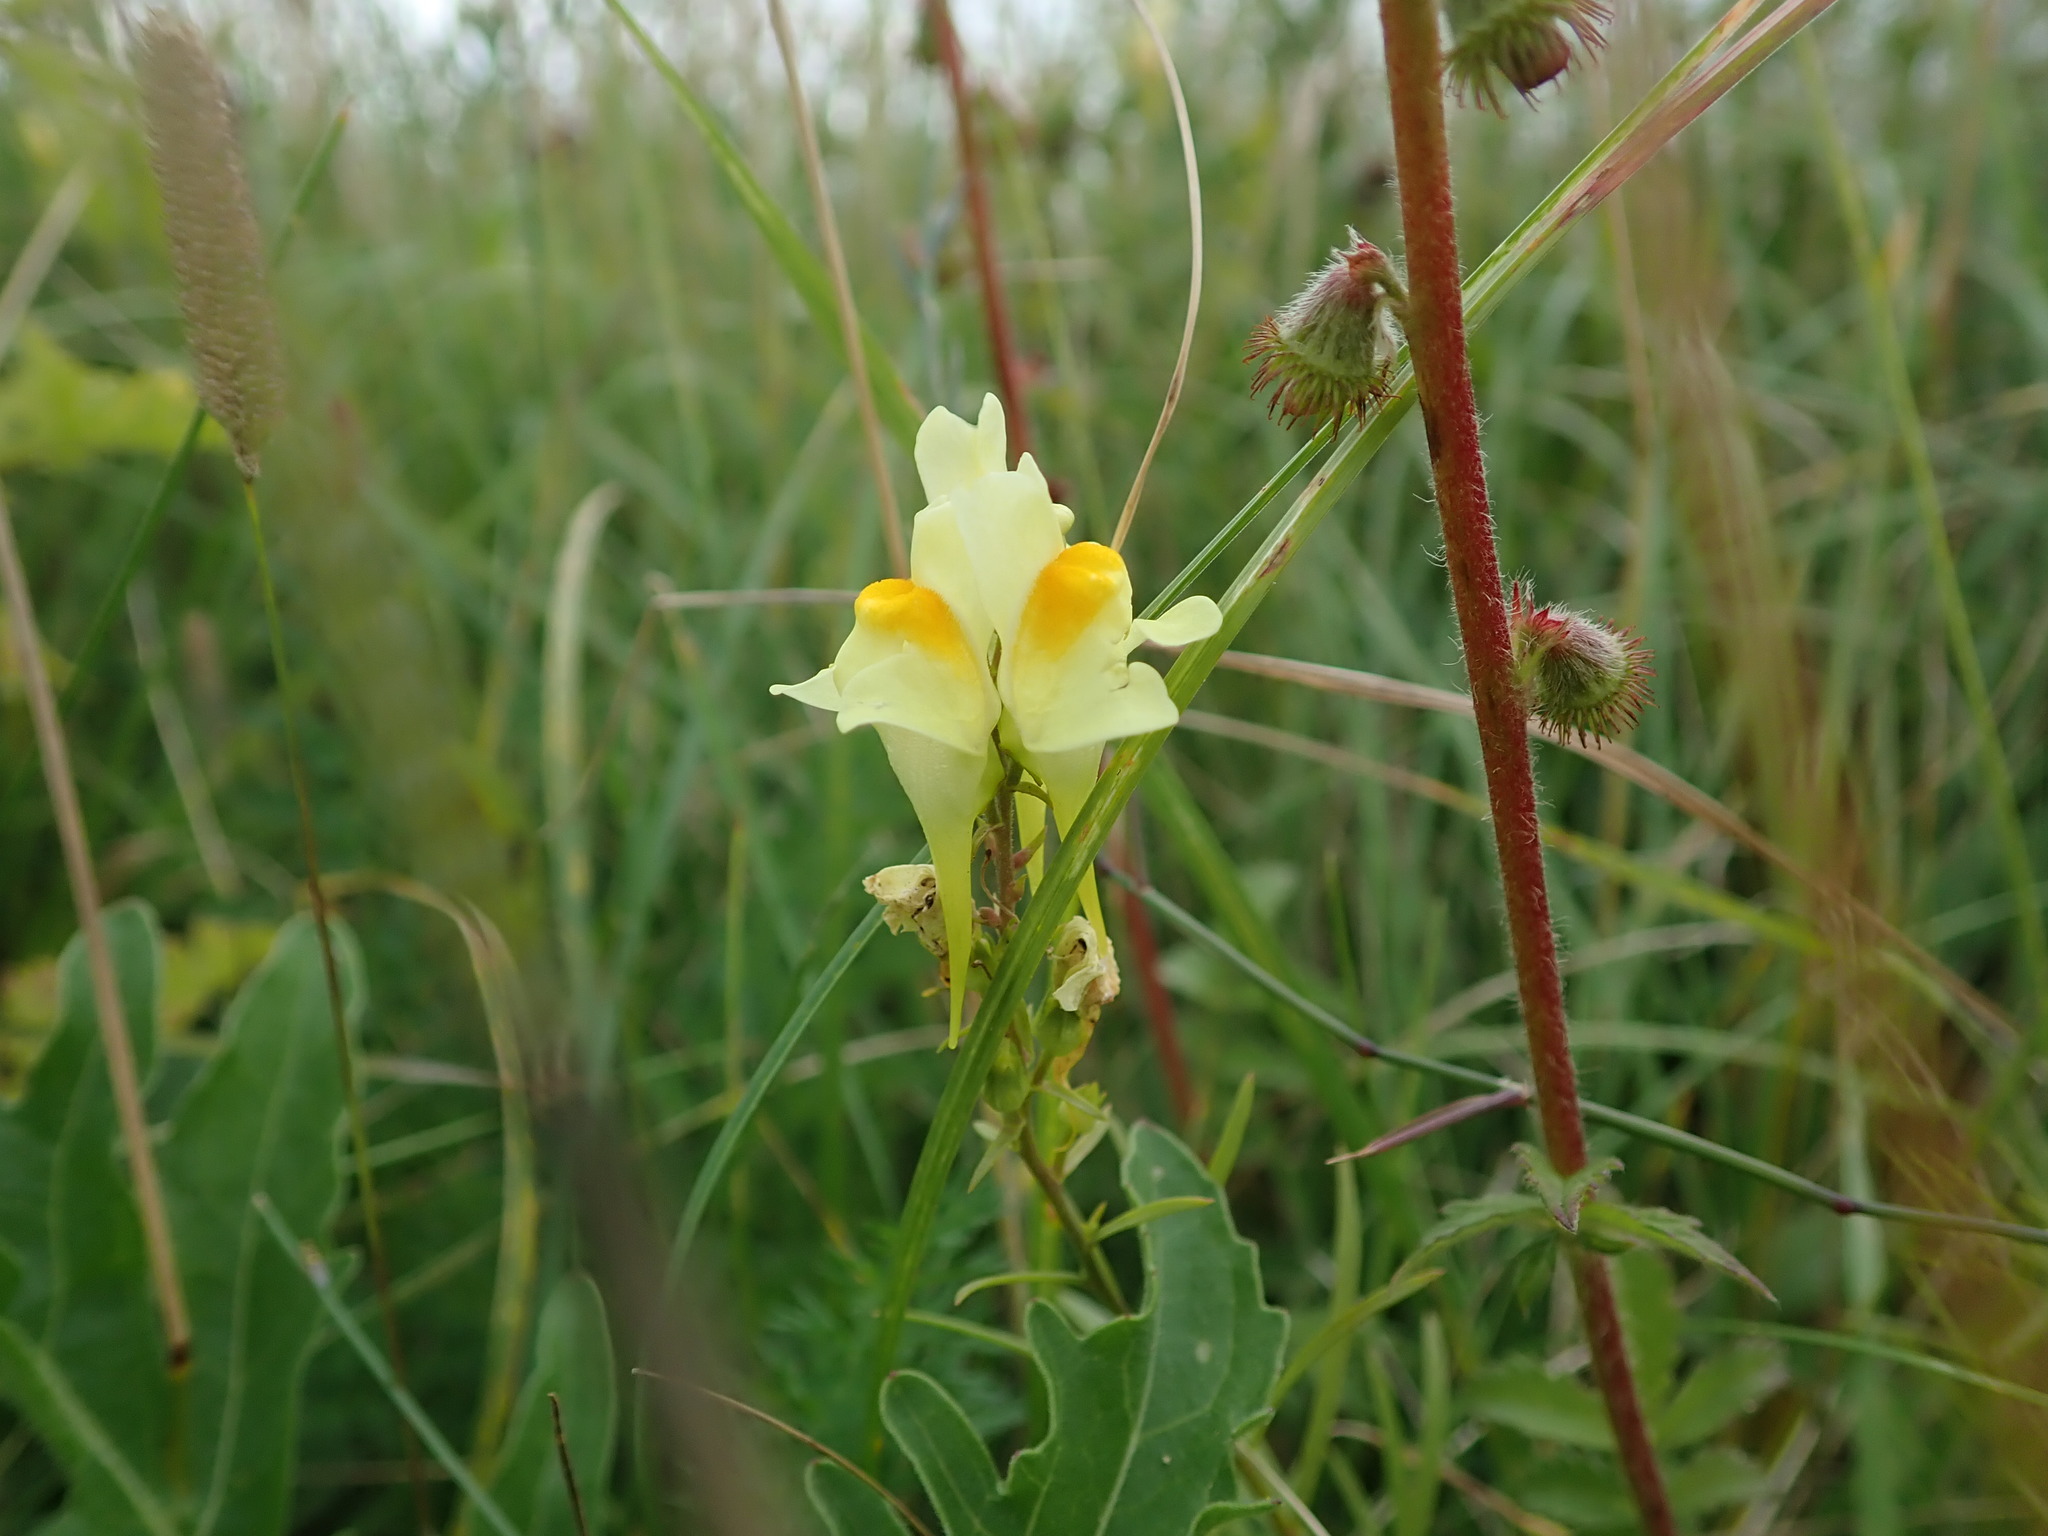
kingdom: Plantae
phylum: Tracheophyta
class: Magnoliopsida
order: Lamiales
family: Plantaginaceae
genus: Linaria
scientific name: Linaria vulgaris
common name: Butter and eggs
